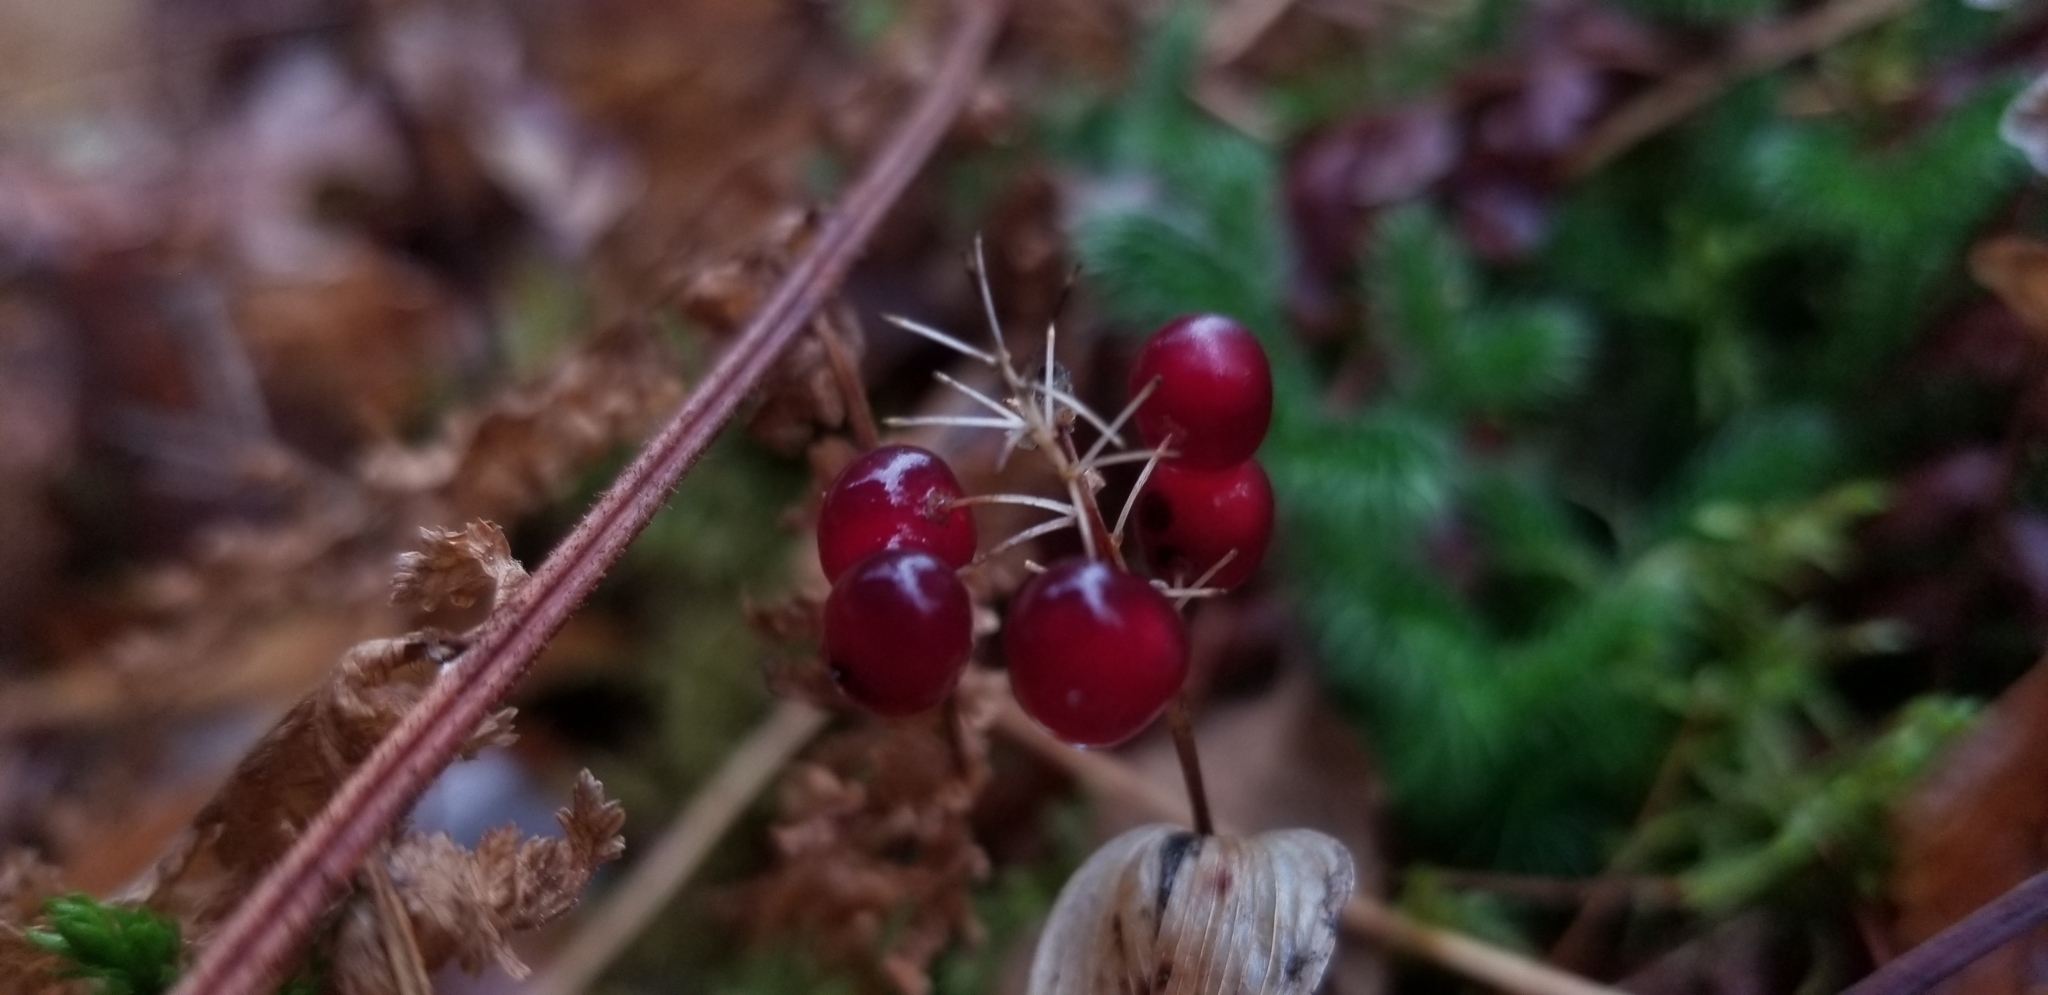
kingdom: Plantae
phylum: Tracheophyta
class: Liliopsida
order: Asparagales
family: Asparagaceae
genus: Maianthemum
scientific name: Maianthemum canadense
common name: False lily-of-the-valley
